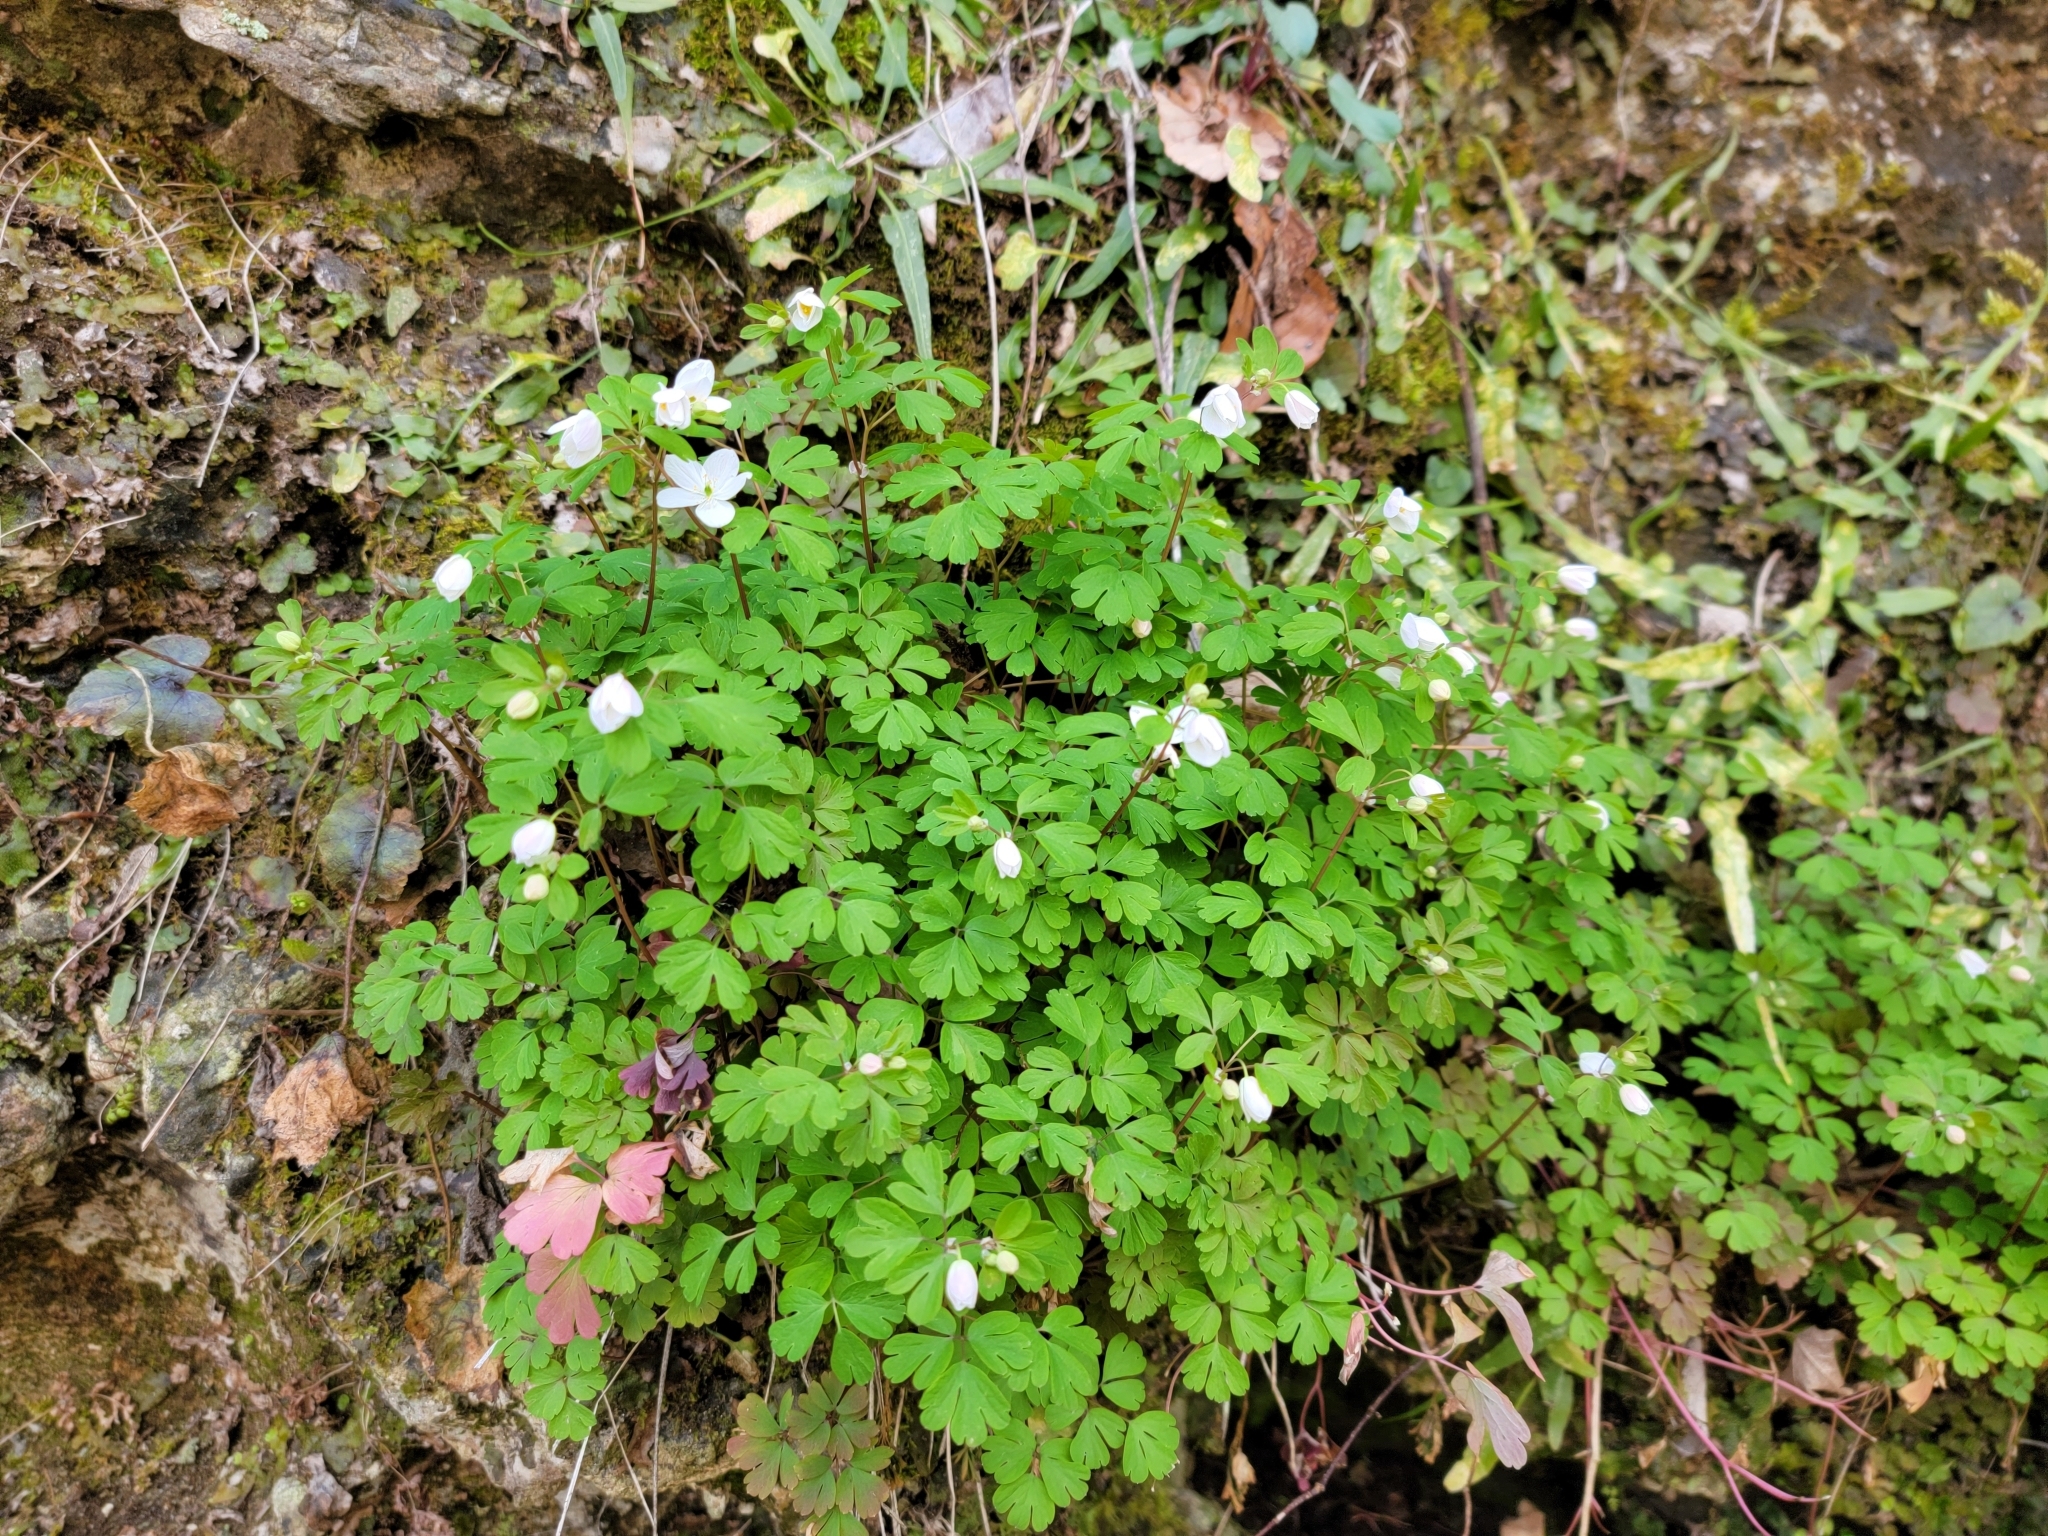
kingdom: Plantae
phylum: Tracheophyta
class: Magnoliopsida
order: Ranunculales
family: Ranunculaceae
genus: Enemion
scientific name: Enemion biternatum
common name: Eastern false rue-anemone
